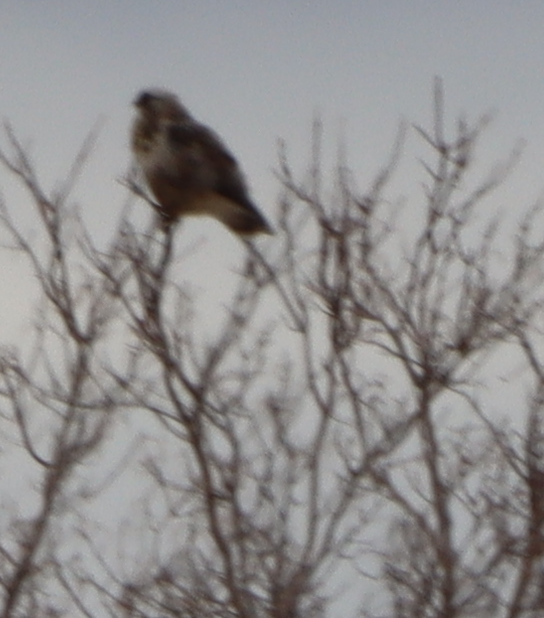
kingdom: Animalia
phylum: Chordata
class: Aves
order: Accipitriformes
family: Accipitridae
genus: Buteo
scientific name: Buteo lagopus
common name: Rough-legged buzzard
